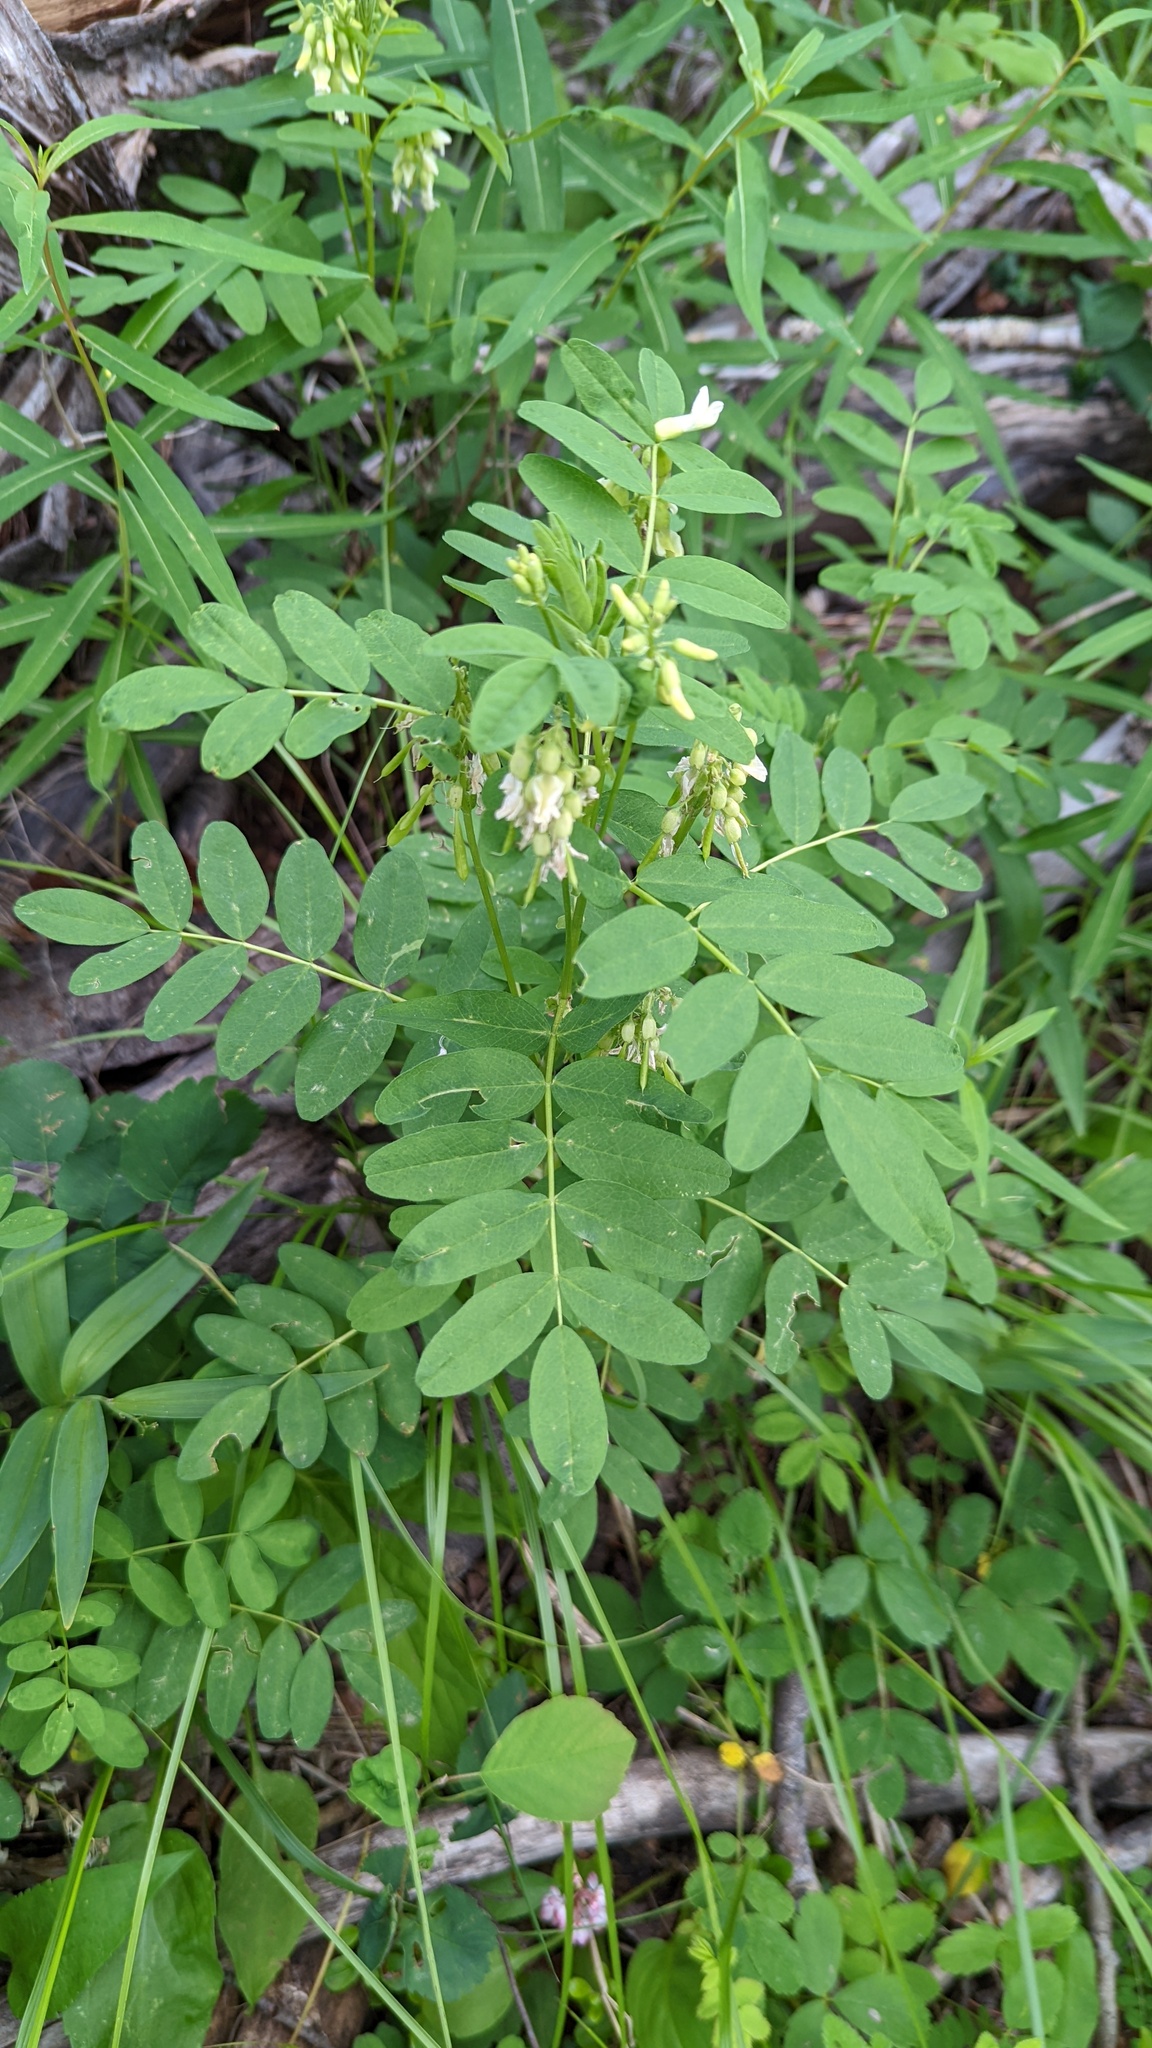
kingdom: Plantae
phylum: Tracheophyta
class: Magnoliopsida
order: Fabales
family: Fabaceae
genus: Astragalus
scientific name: Astragalus americanus
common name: American milk-vetch
